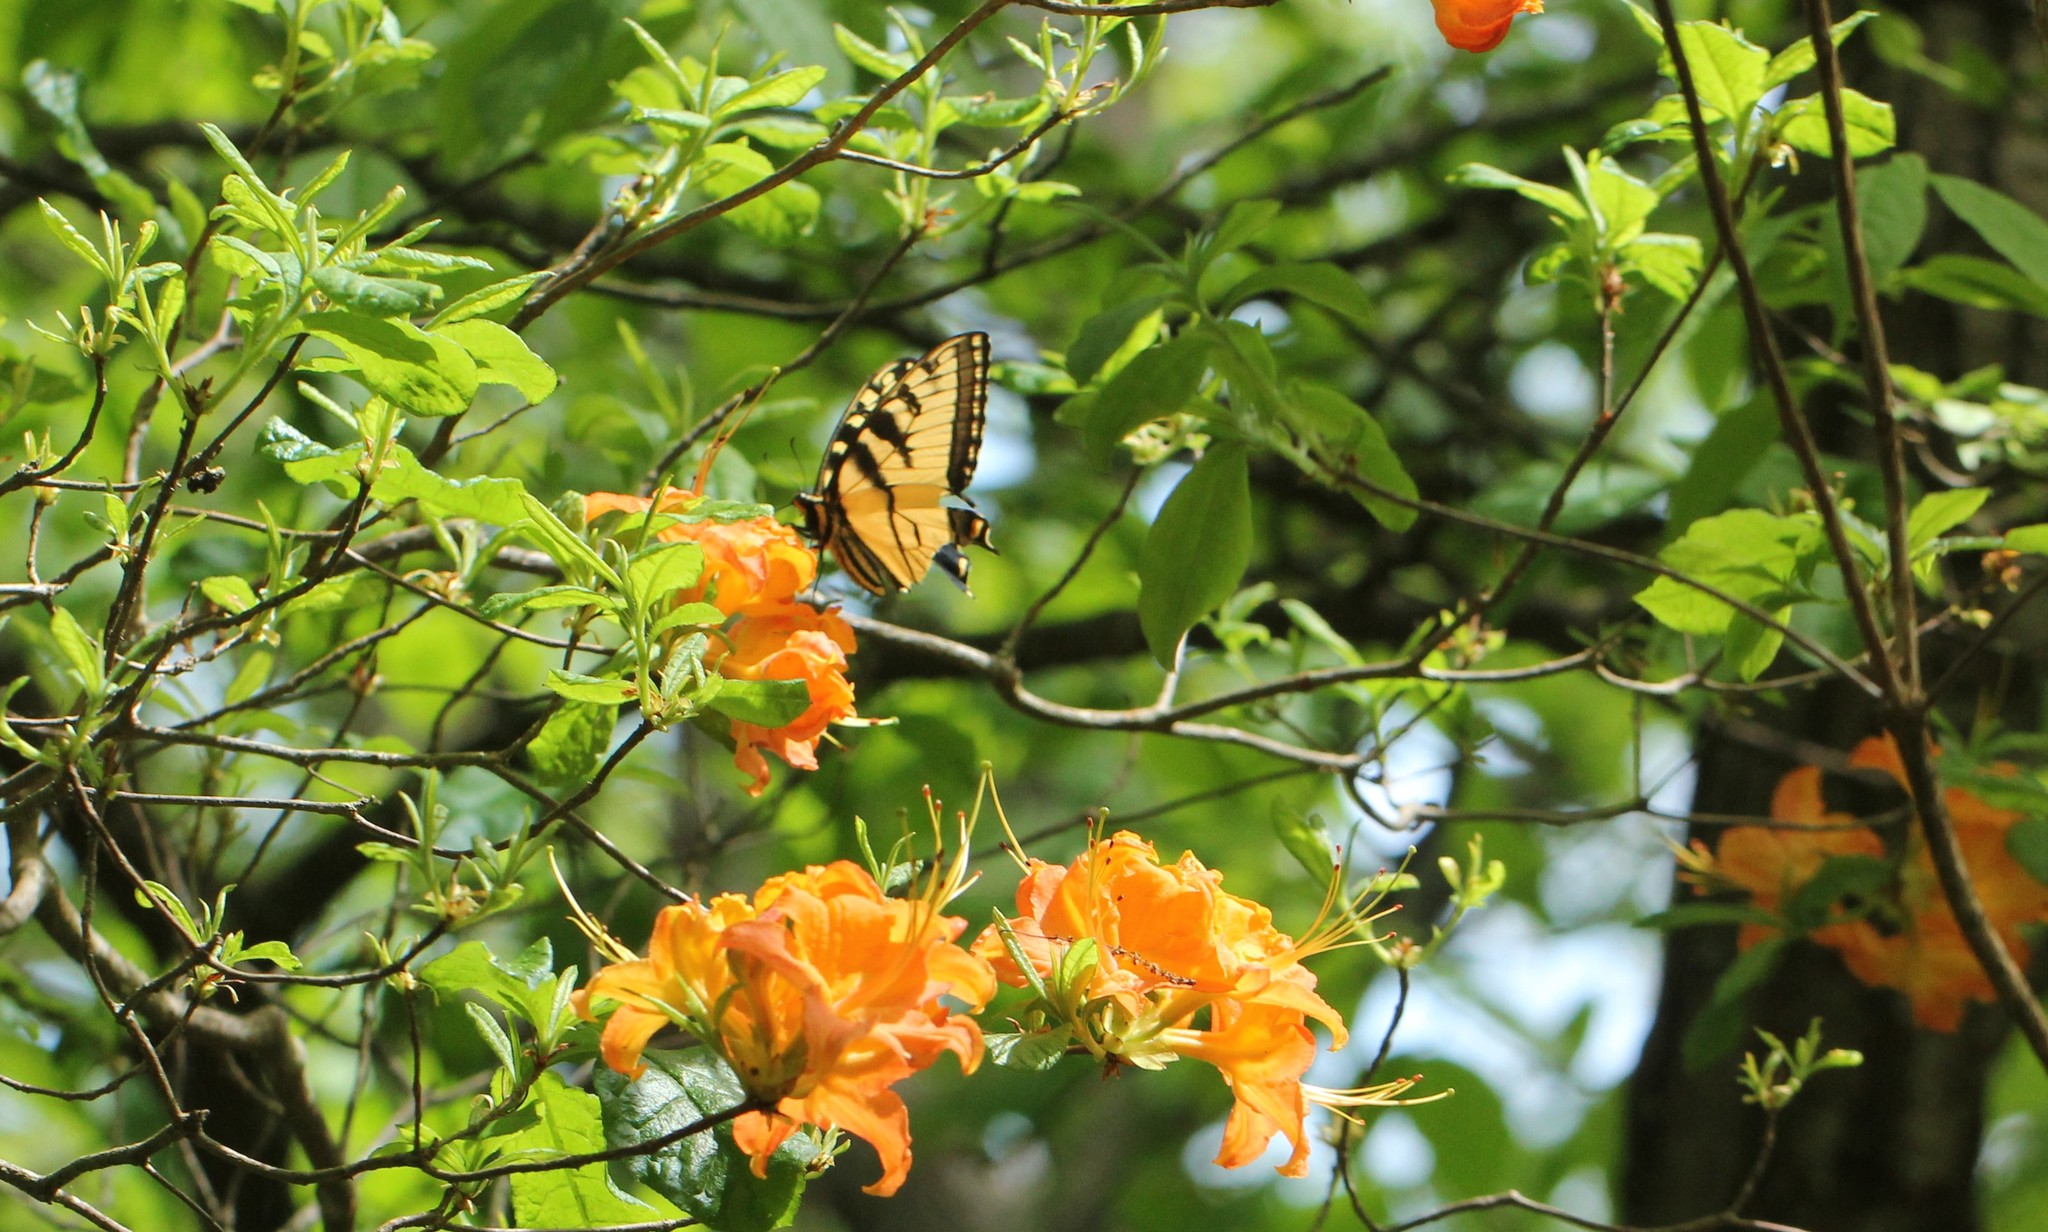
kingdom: Animalia
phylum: Arthropoda
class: Insecta
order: Lepidoptera
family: Papilionidae
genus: Papilio
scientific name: Papilio glaucus
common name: Tiger swallowtail
